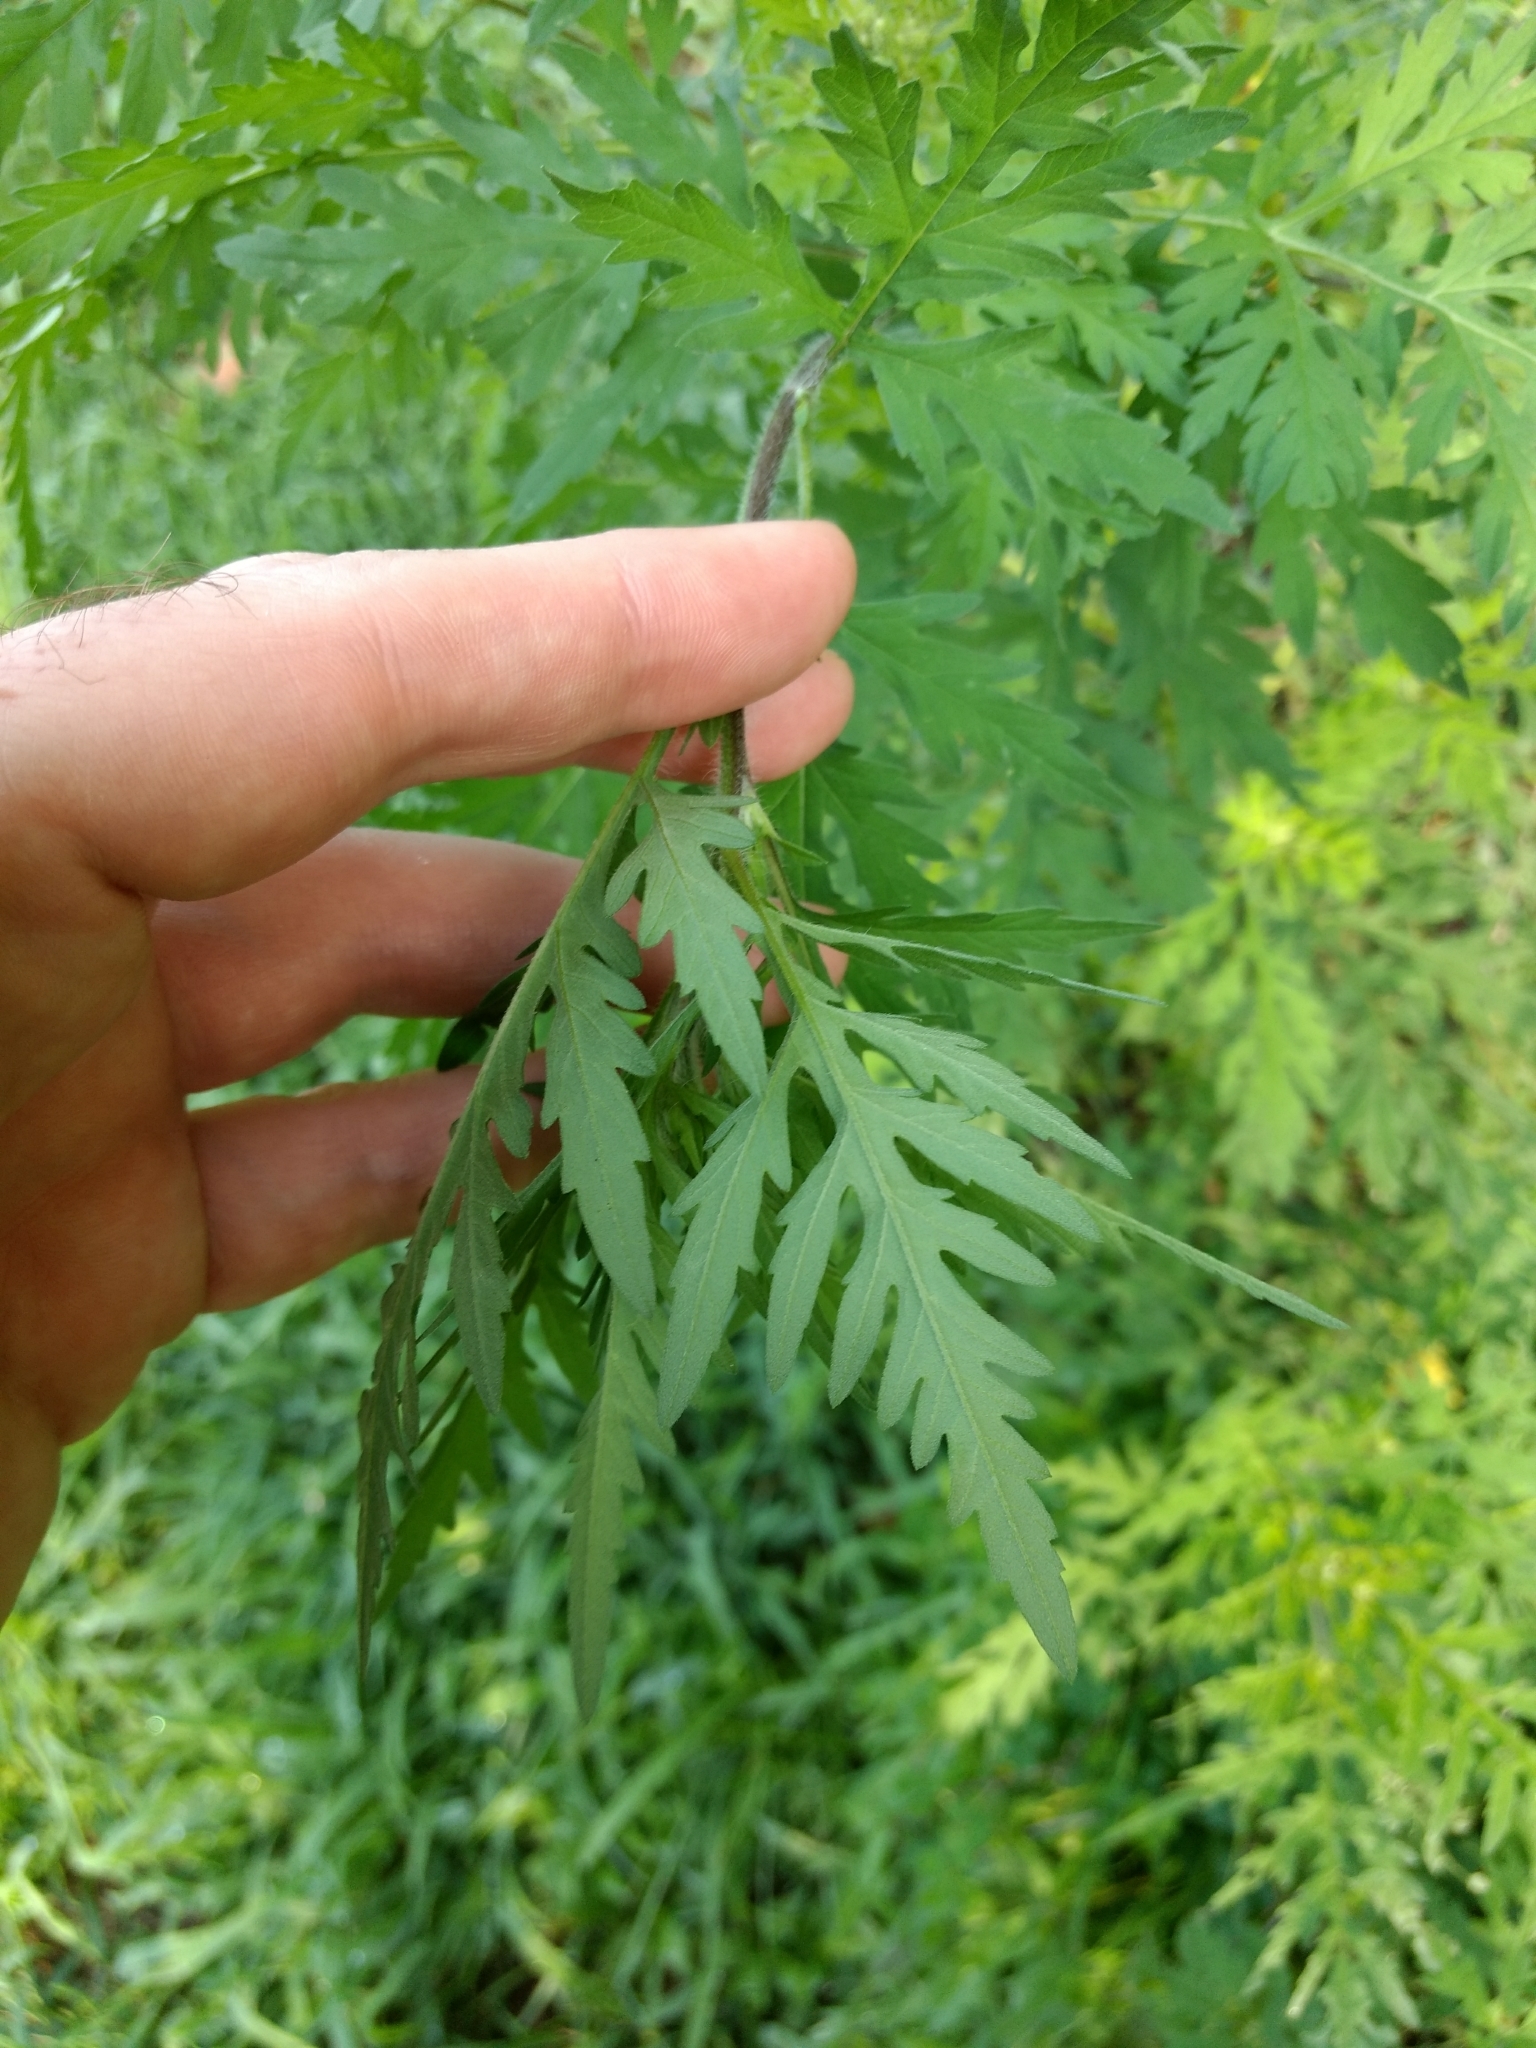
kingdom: Plantae
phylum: Tracheophyta
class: Magnoliopsida
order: Asterales
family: Asteraceae
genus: Ambrosia
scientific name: Ambrosia artemisiifolia
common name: Annual ragweed
